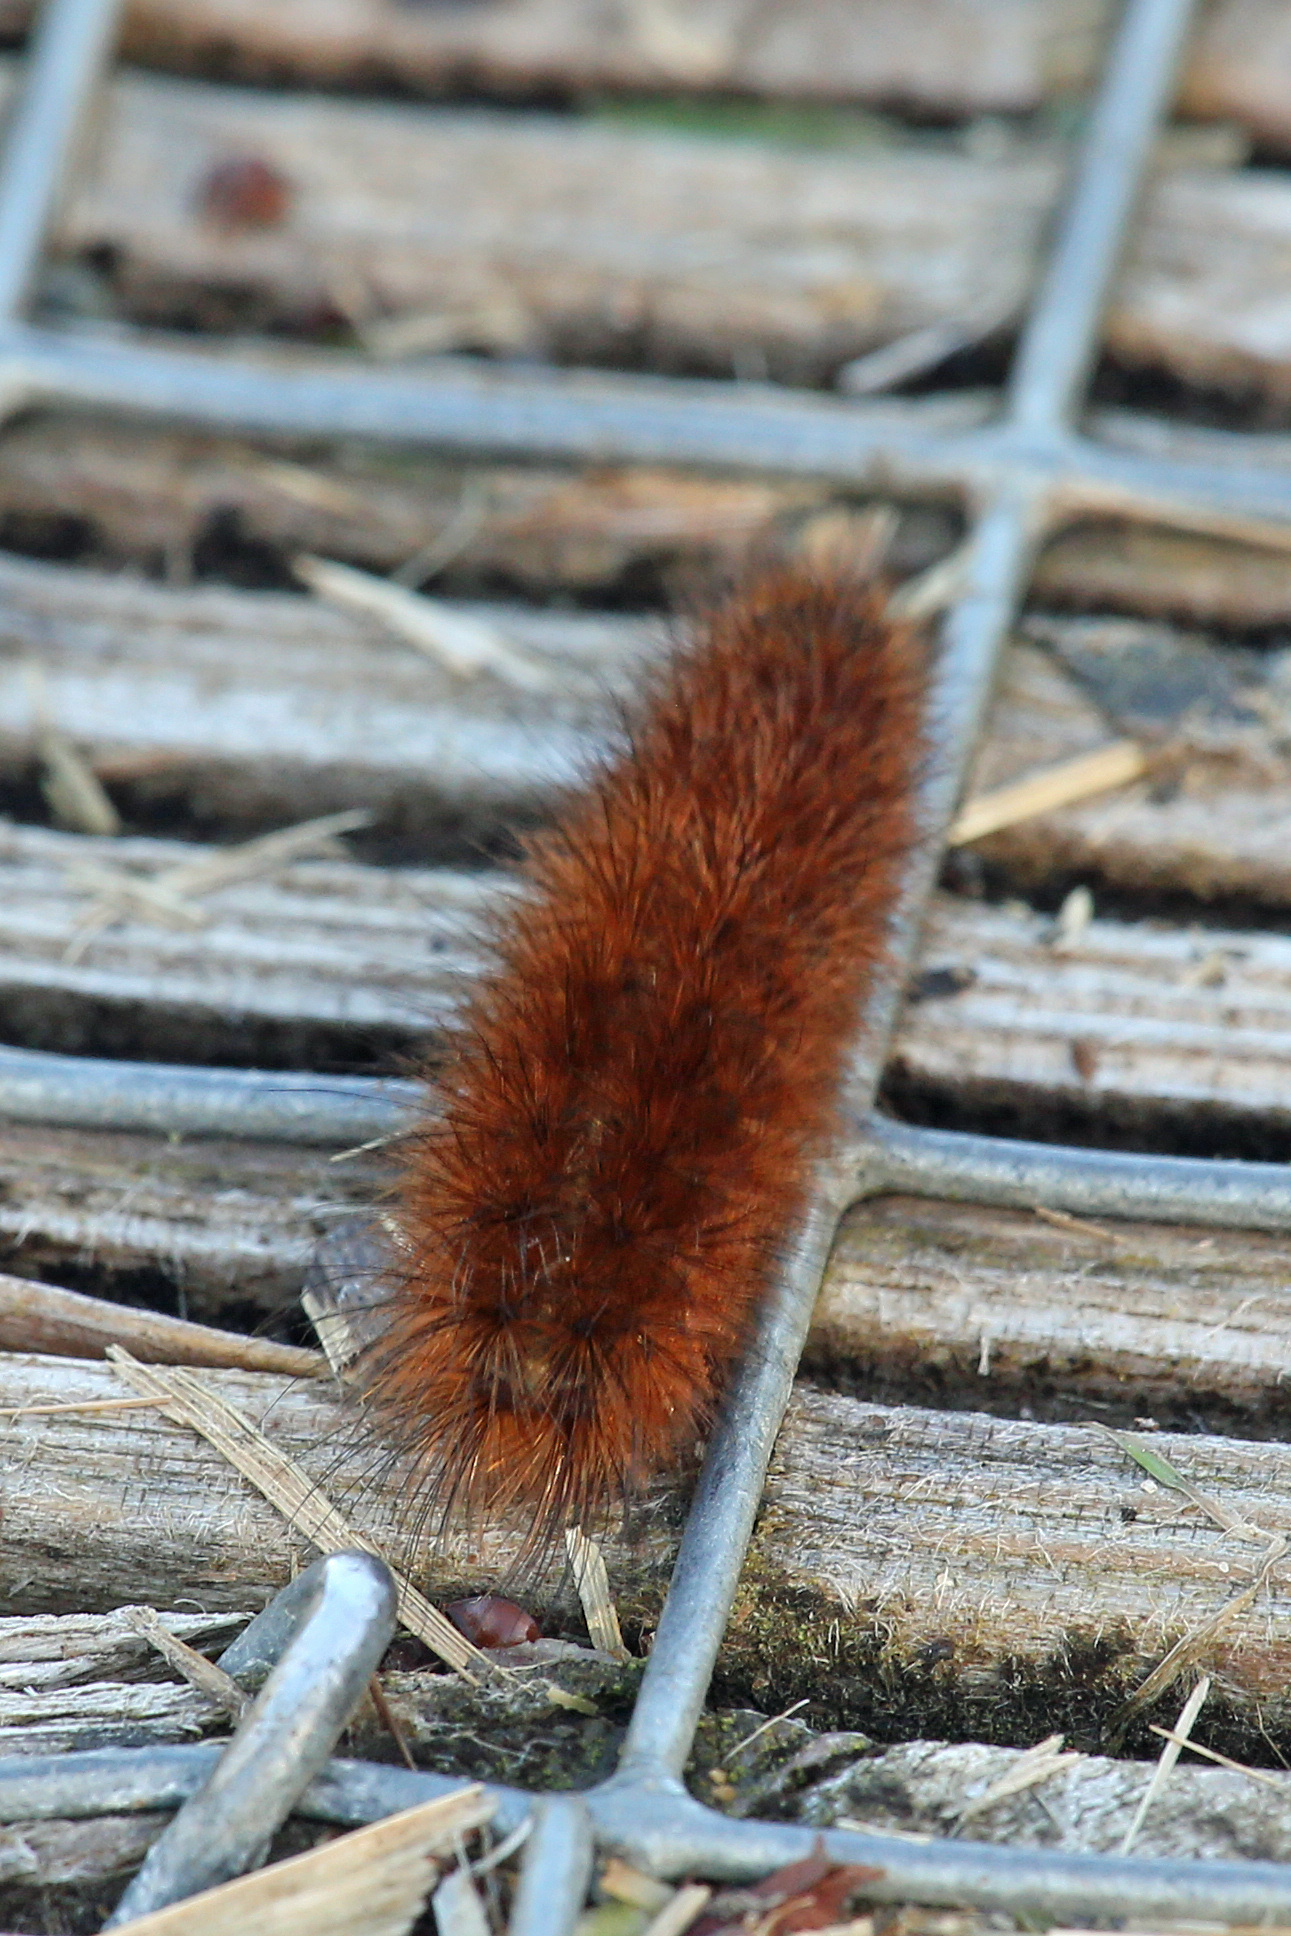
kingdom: Animalia
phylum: Arthropoda
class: Insecta
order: Lepidoptera
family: Erebidae
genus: Phragmatobia
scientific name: Phragmatobia fuliginosa
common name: Ruby tiger
